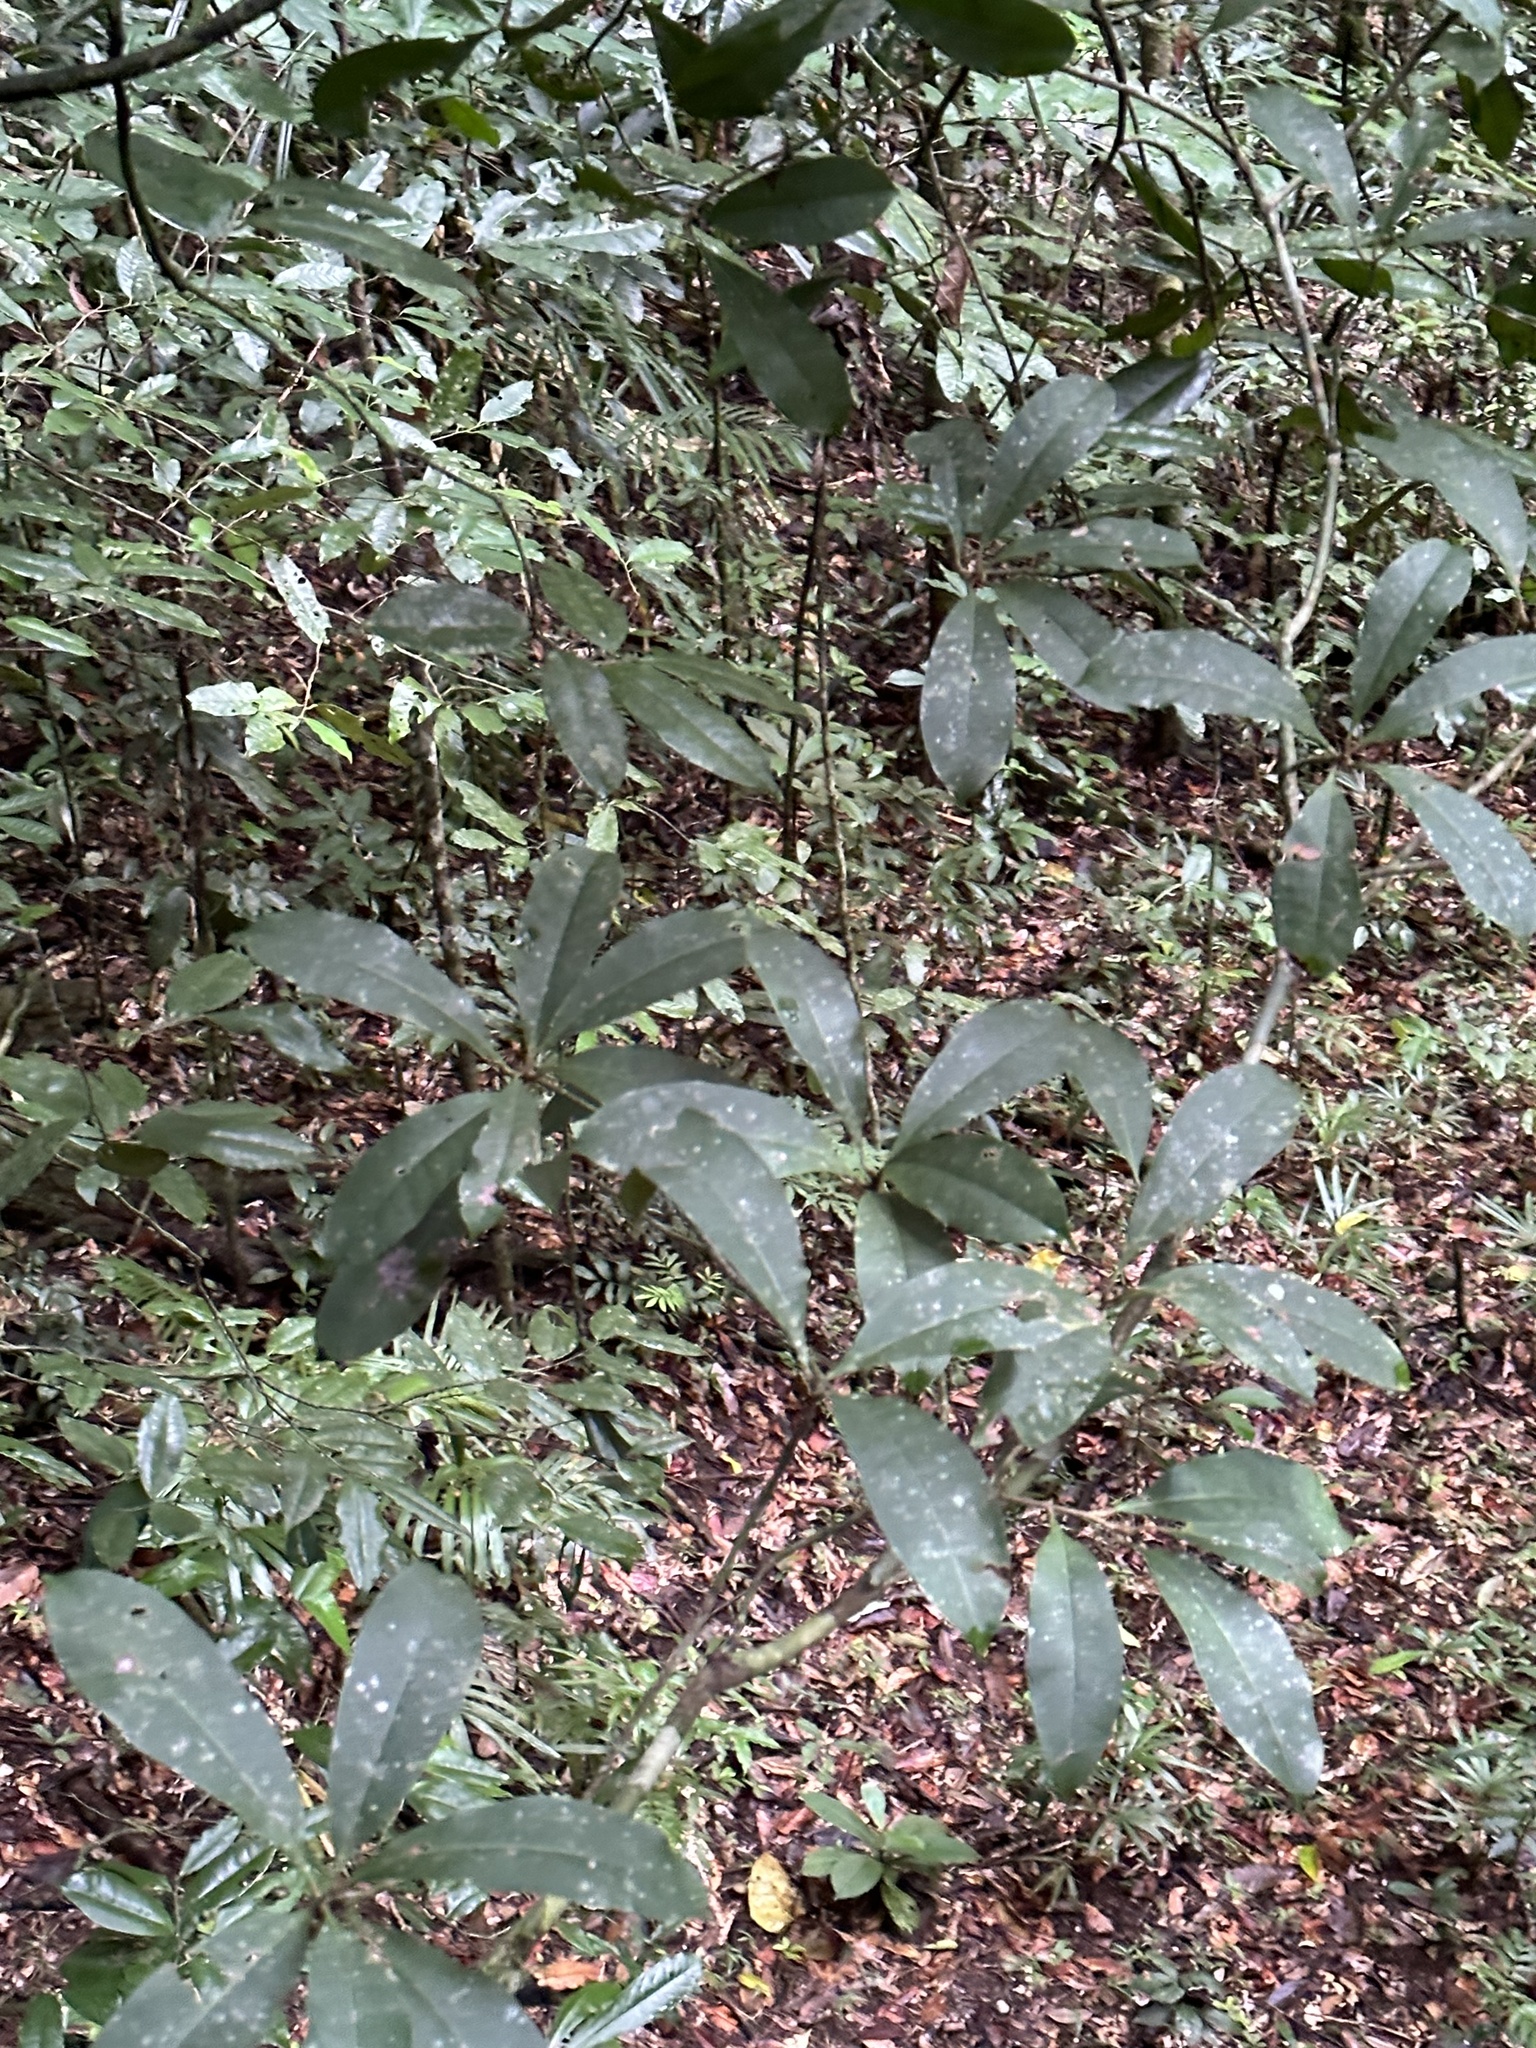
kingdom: Plantae
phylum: Tracheophyta
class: Magnoliopsida
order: Sapindales
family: Rutaceae
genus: Medicosma
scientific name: Medicosma sessiliflora
